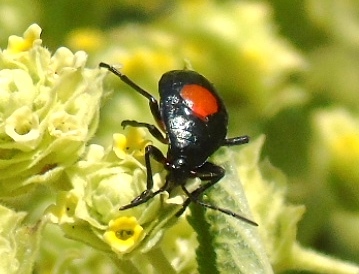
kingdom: Animalia
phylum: Arthropoda
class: Insecta
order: Hemiptera
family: Largidae
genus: Largus
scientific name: Largus
